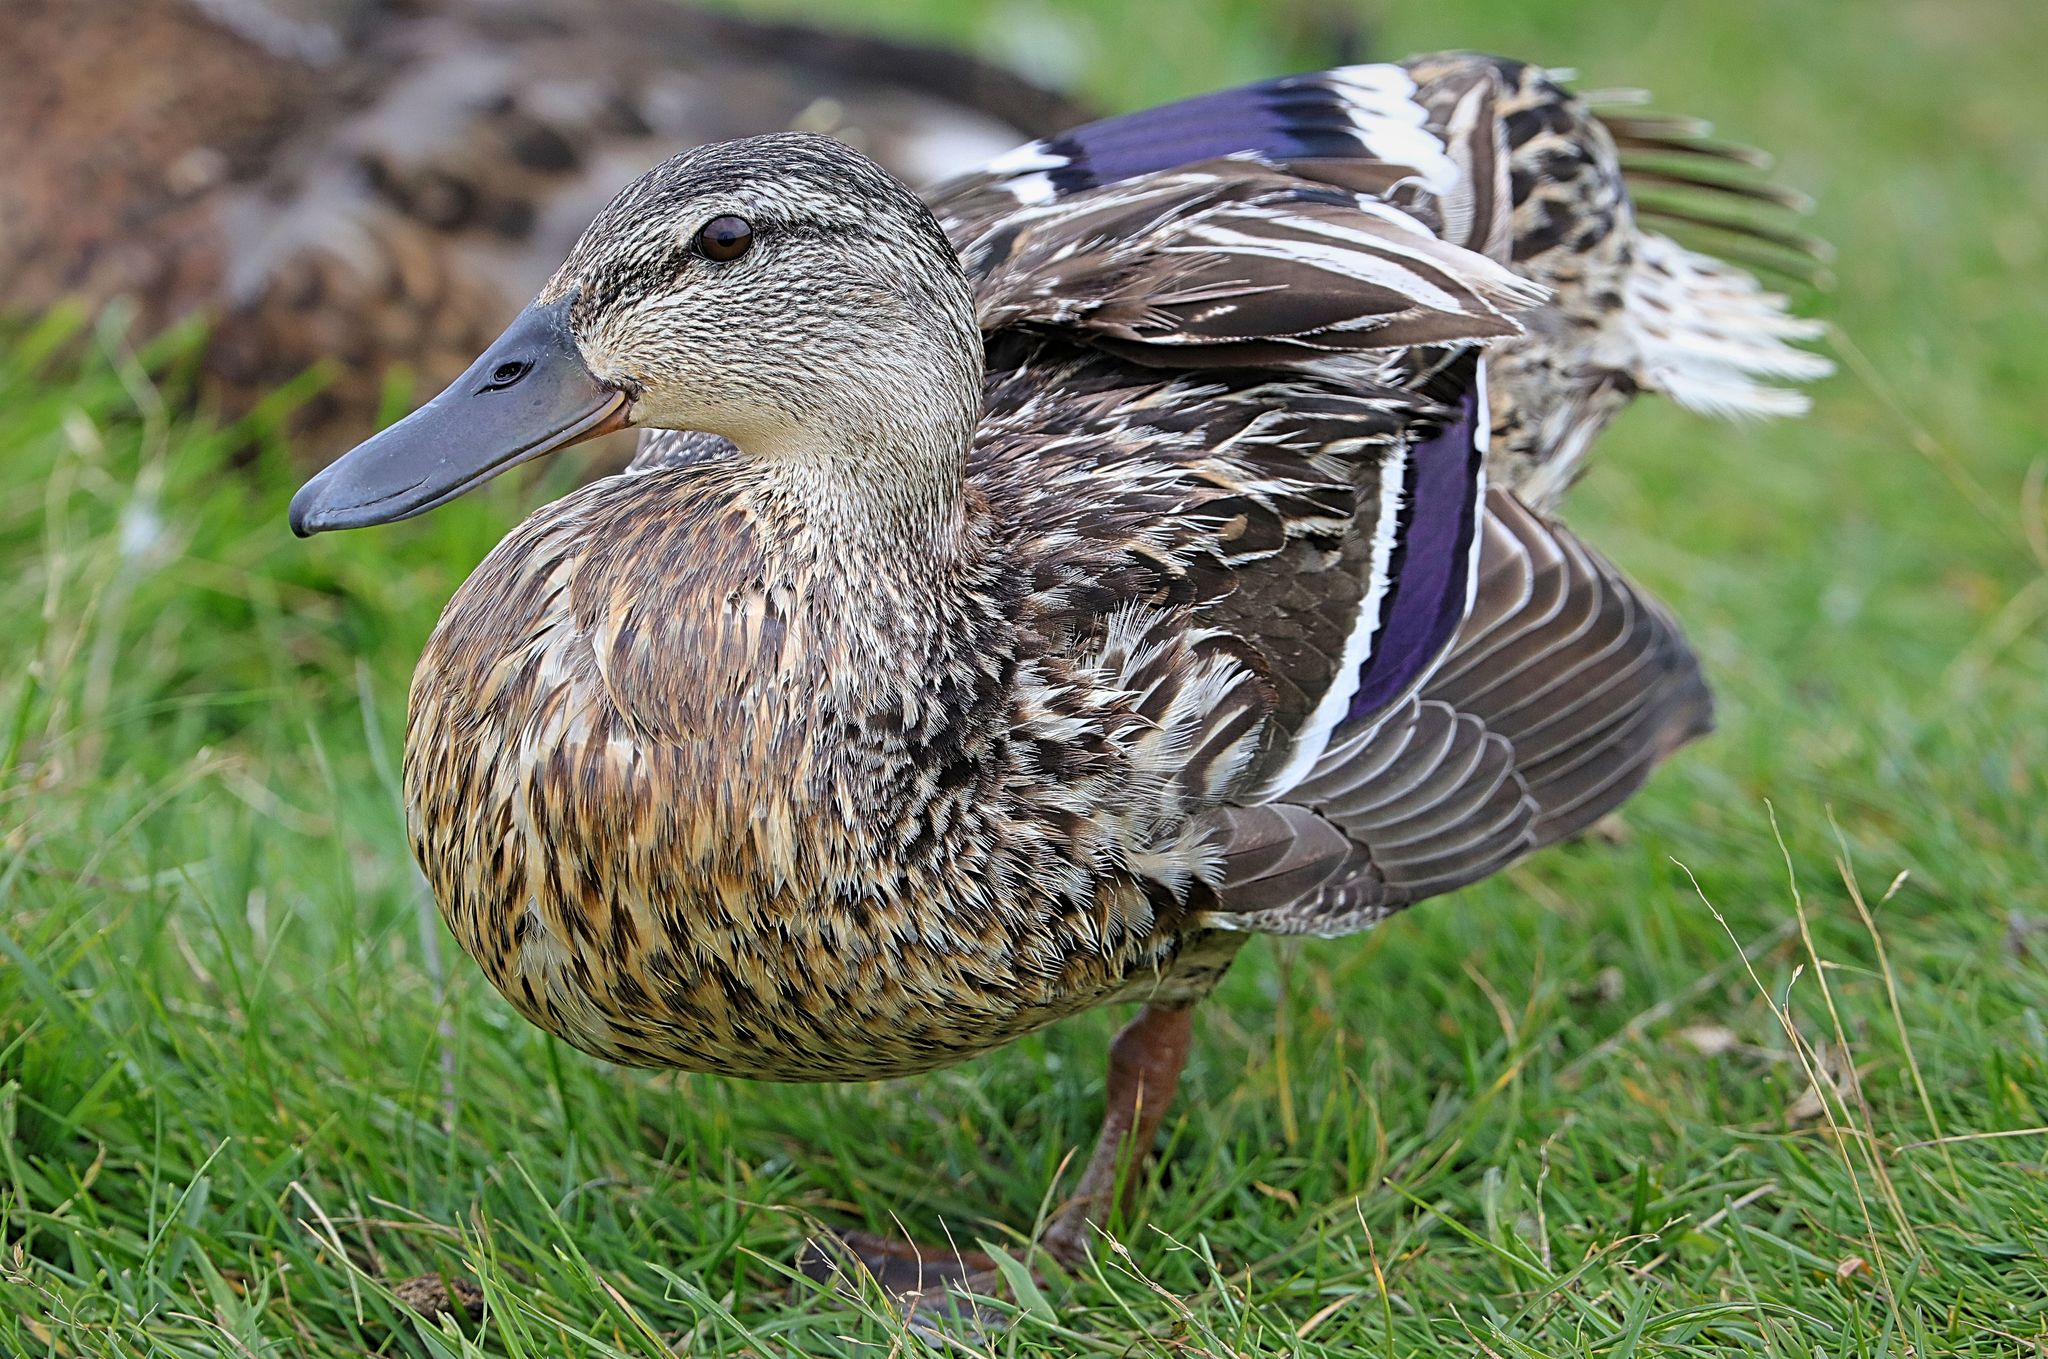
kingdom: Animalia
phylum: Chordata
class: Aves
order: Anseriformes
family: Anatidae
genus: Anas
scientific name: Anas platyrhynchos
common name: Mallard
